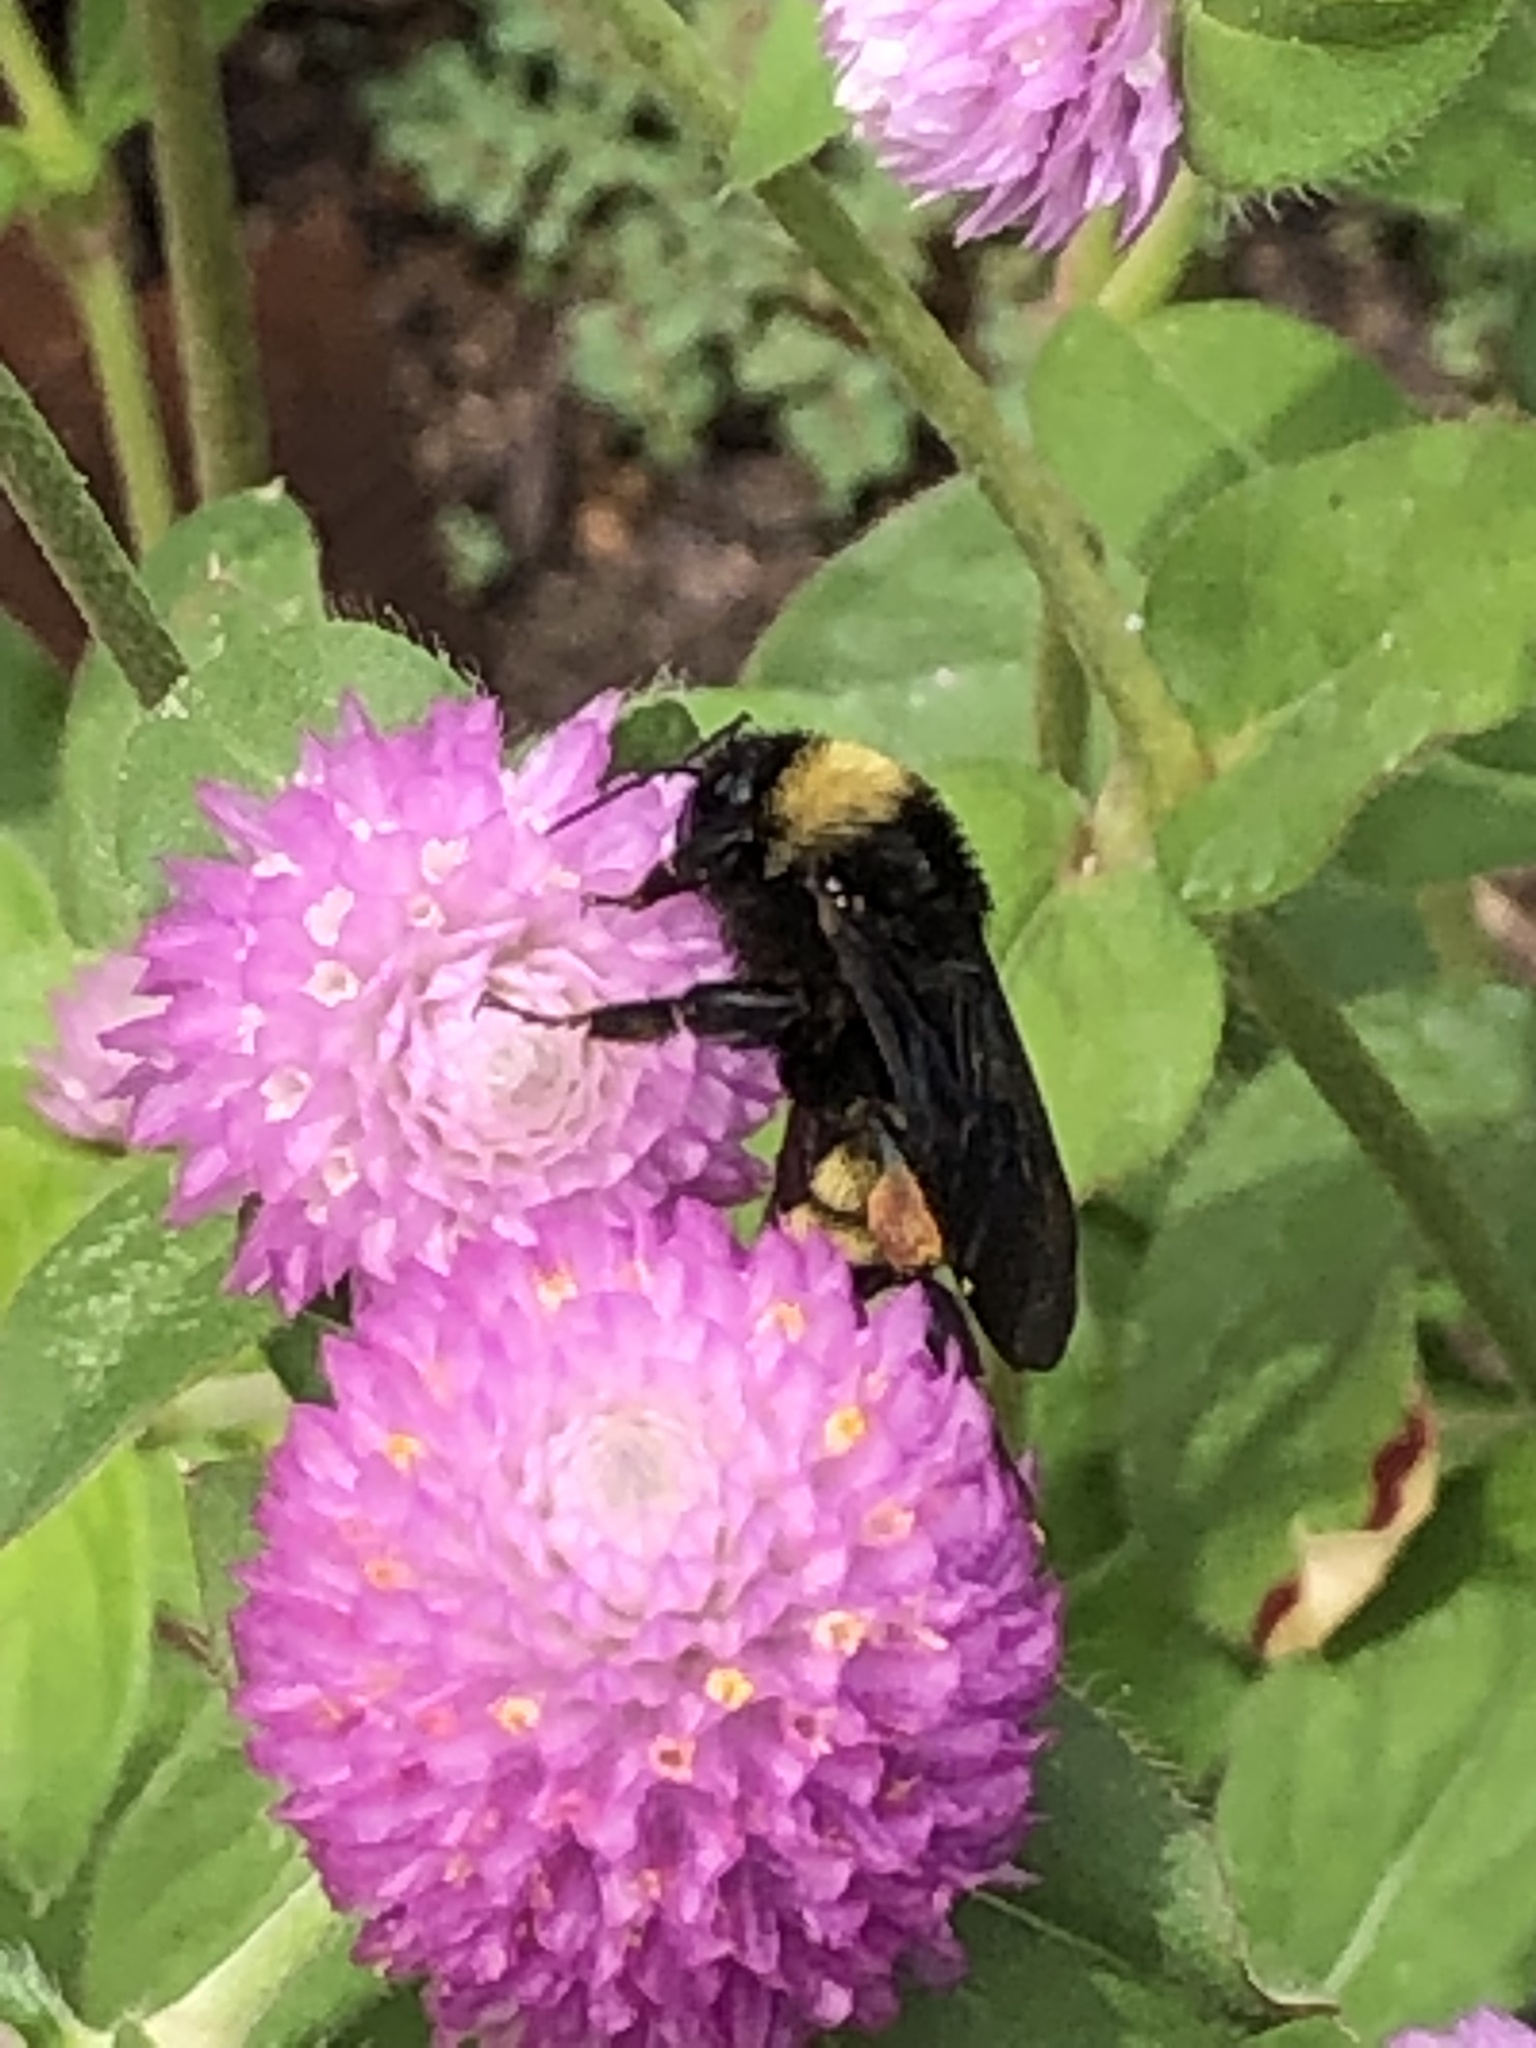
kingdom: Animalia
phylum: Arthropoda
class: Insecta
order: Hymenoptera
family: Apidae
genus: Bombus
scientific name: Bombus pensylvanicus
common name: Bumble bee
